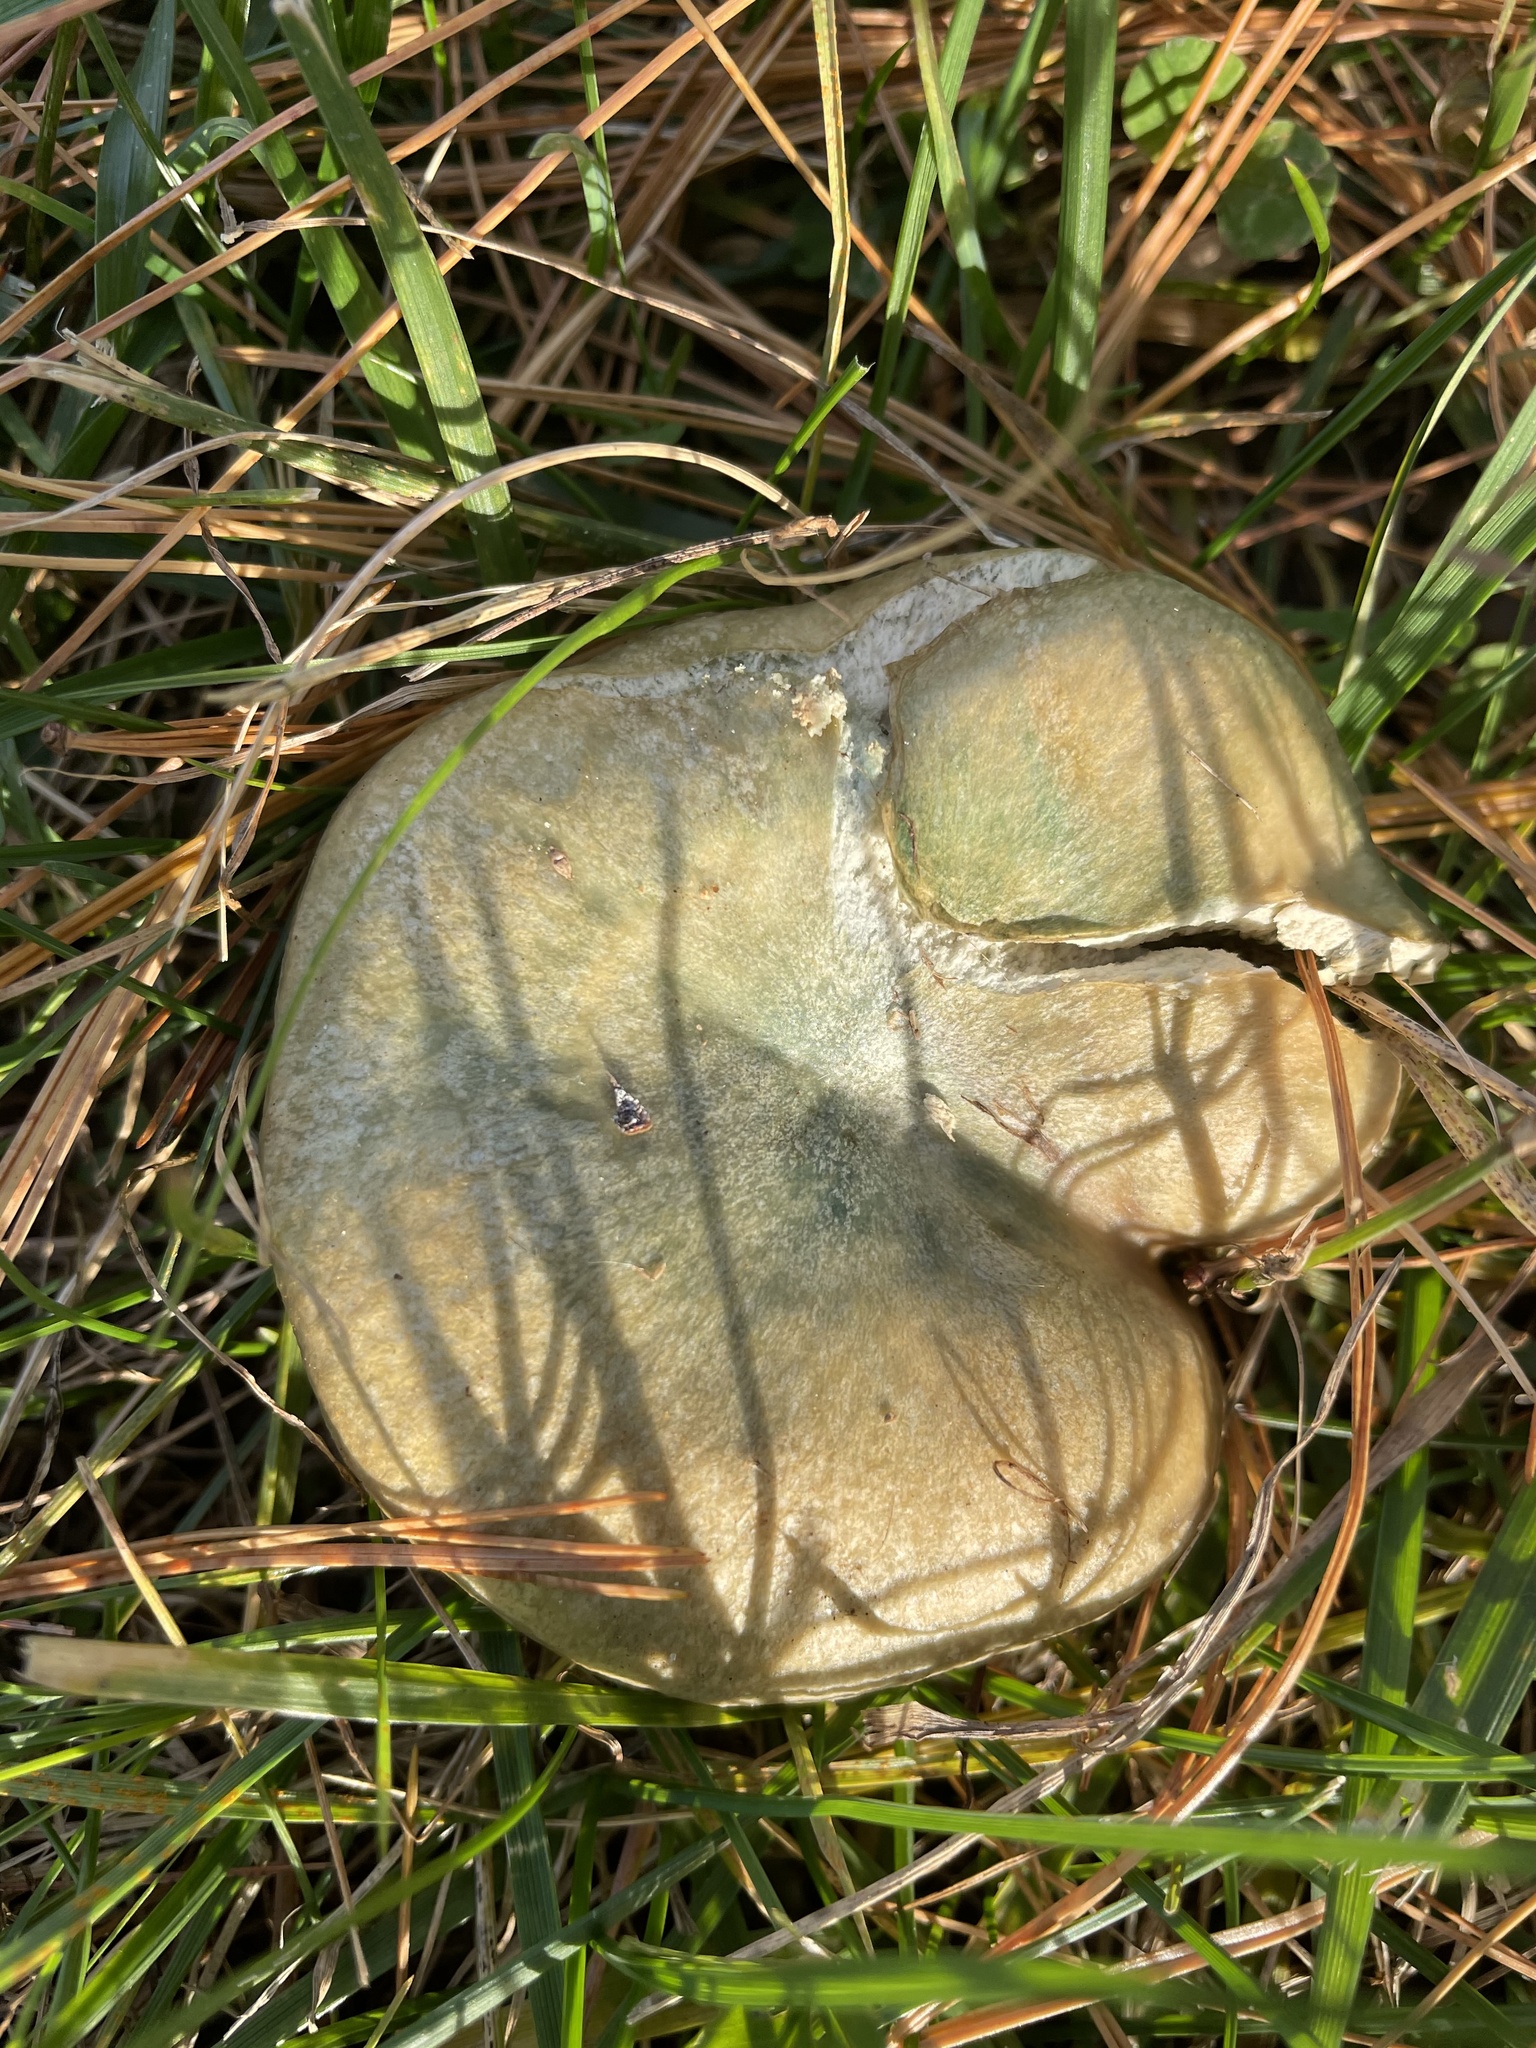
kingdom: Fungi
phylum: Basidiomycota
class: Agaricomycetes
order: Russulales
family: Russulaceae
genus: Lactarius
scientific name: Lactarius chelidonium
